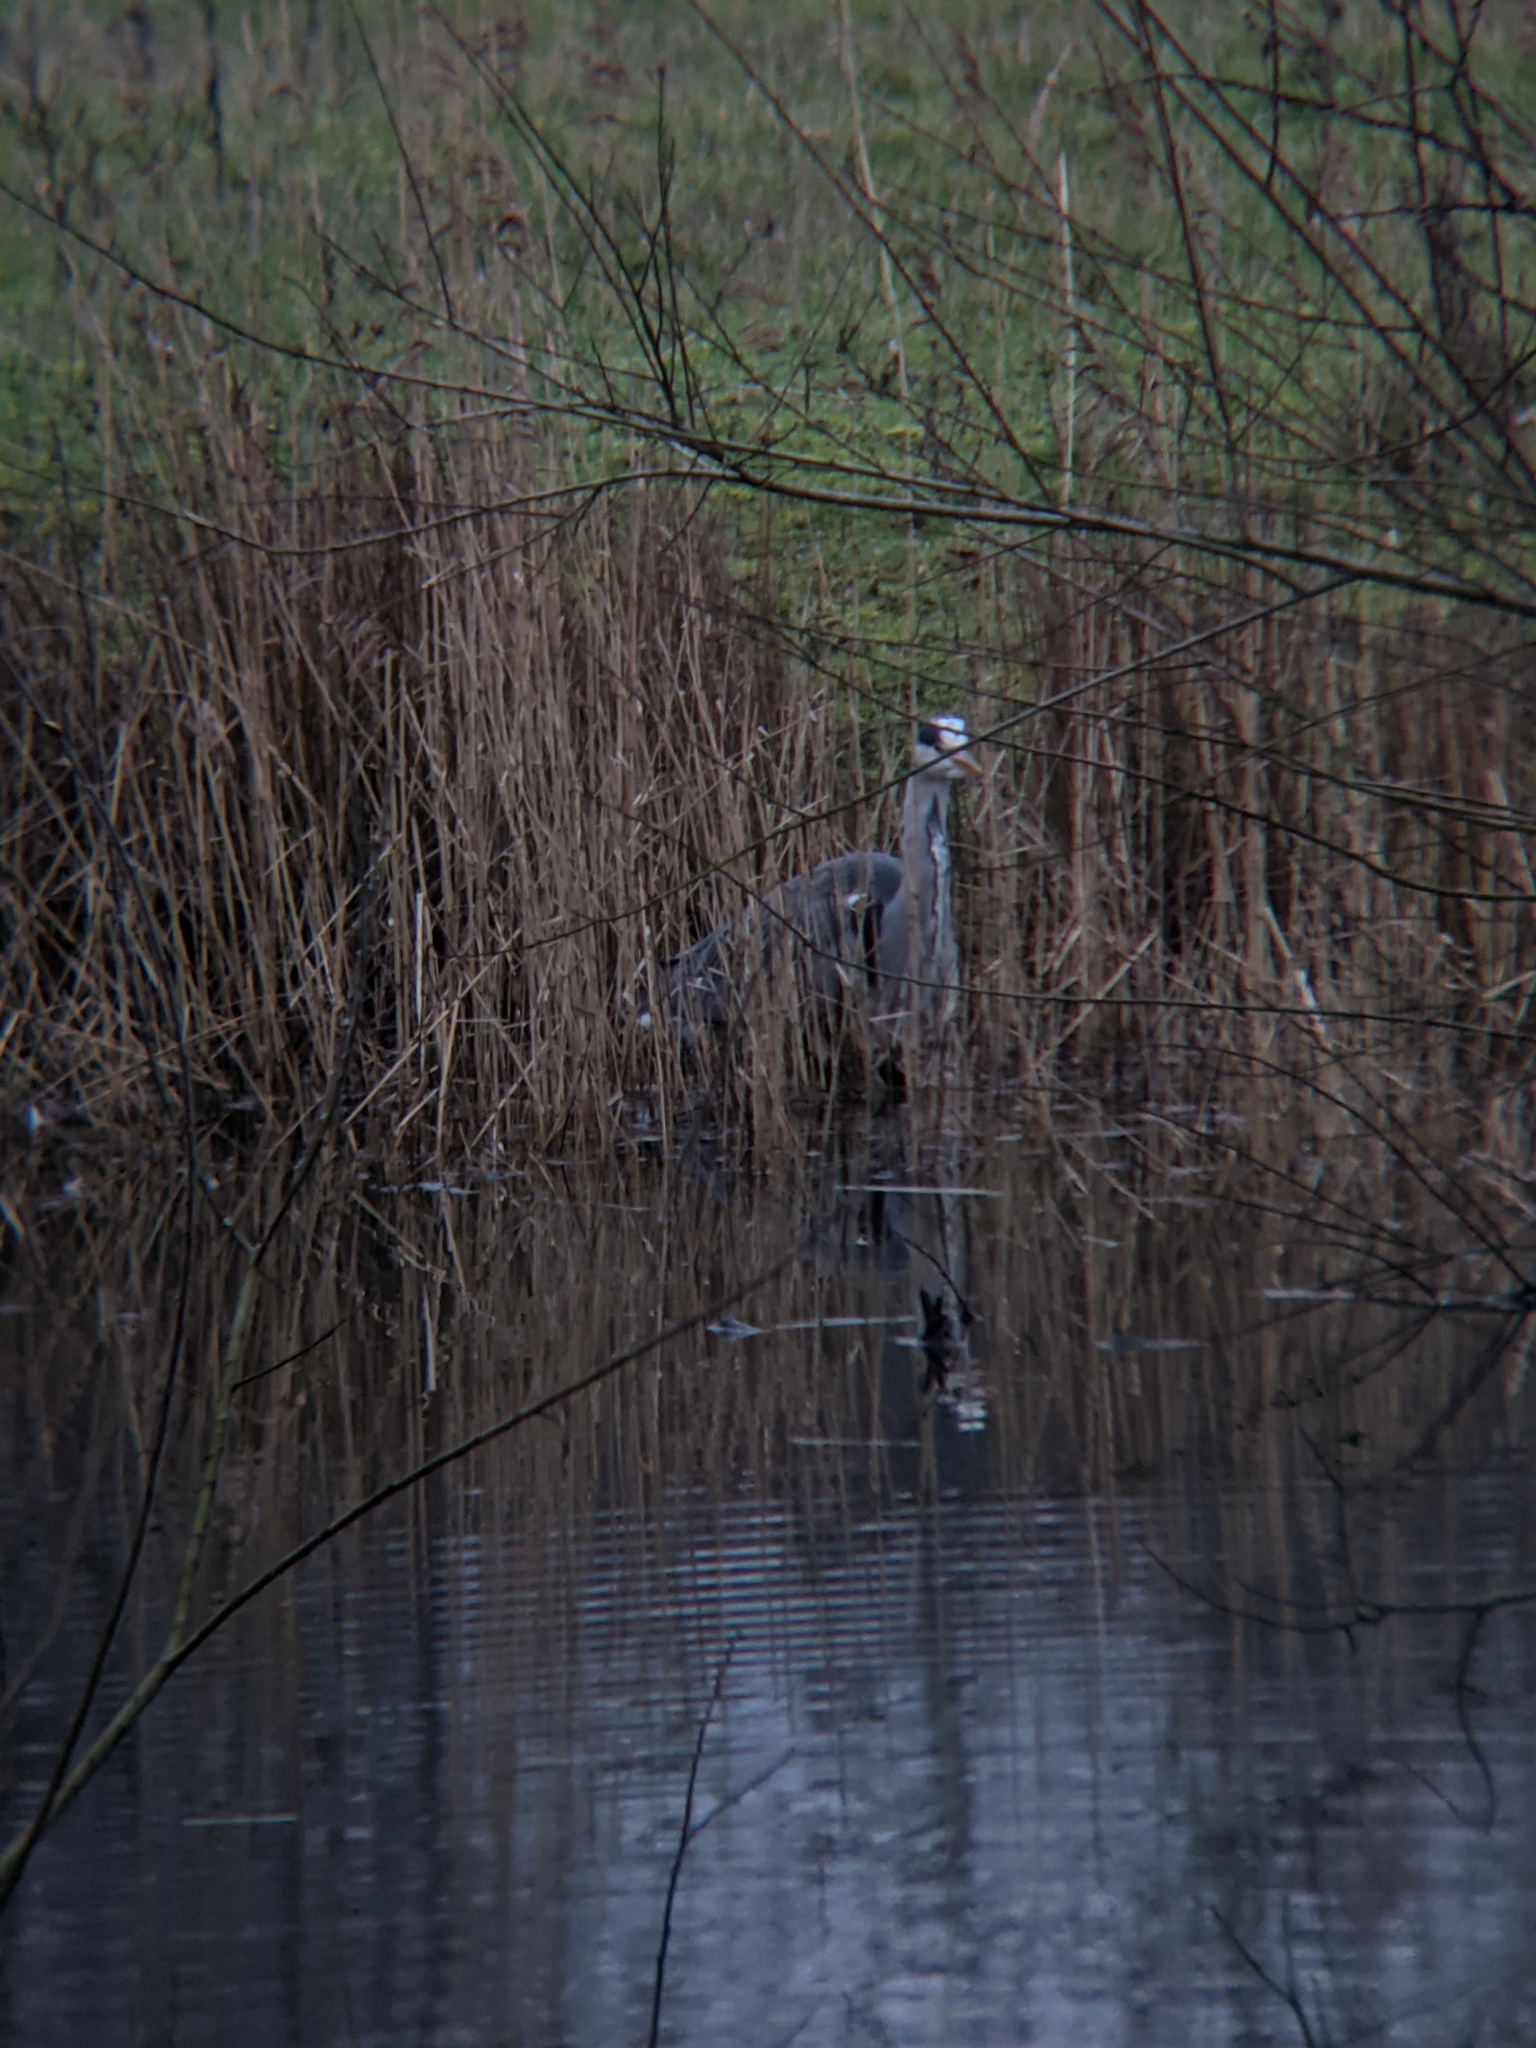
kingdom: Animalia
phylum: Chordata
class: Aves
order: Pelecaniformes
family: Ardeidae
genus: Ardea
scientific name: Ardea cinerea
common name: Grey heron
